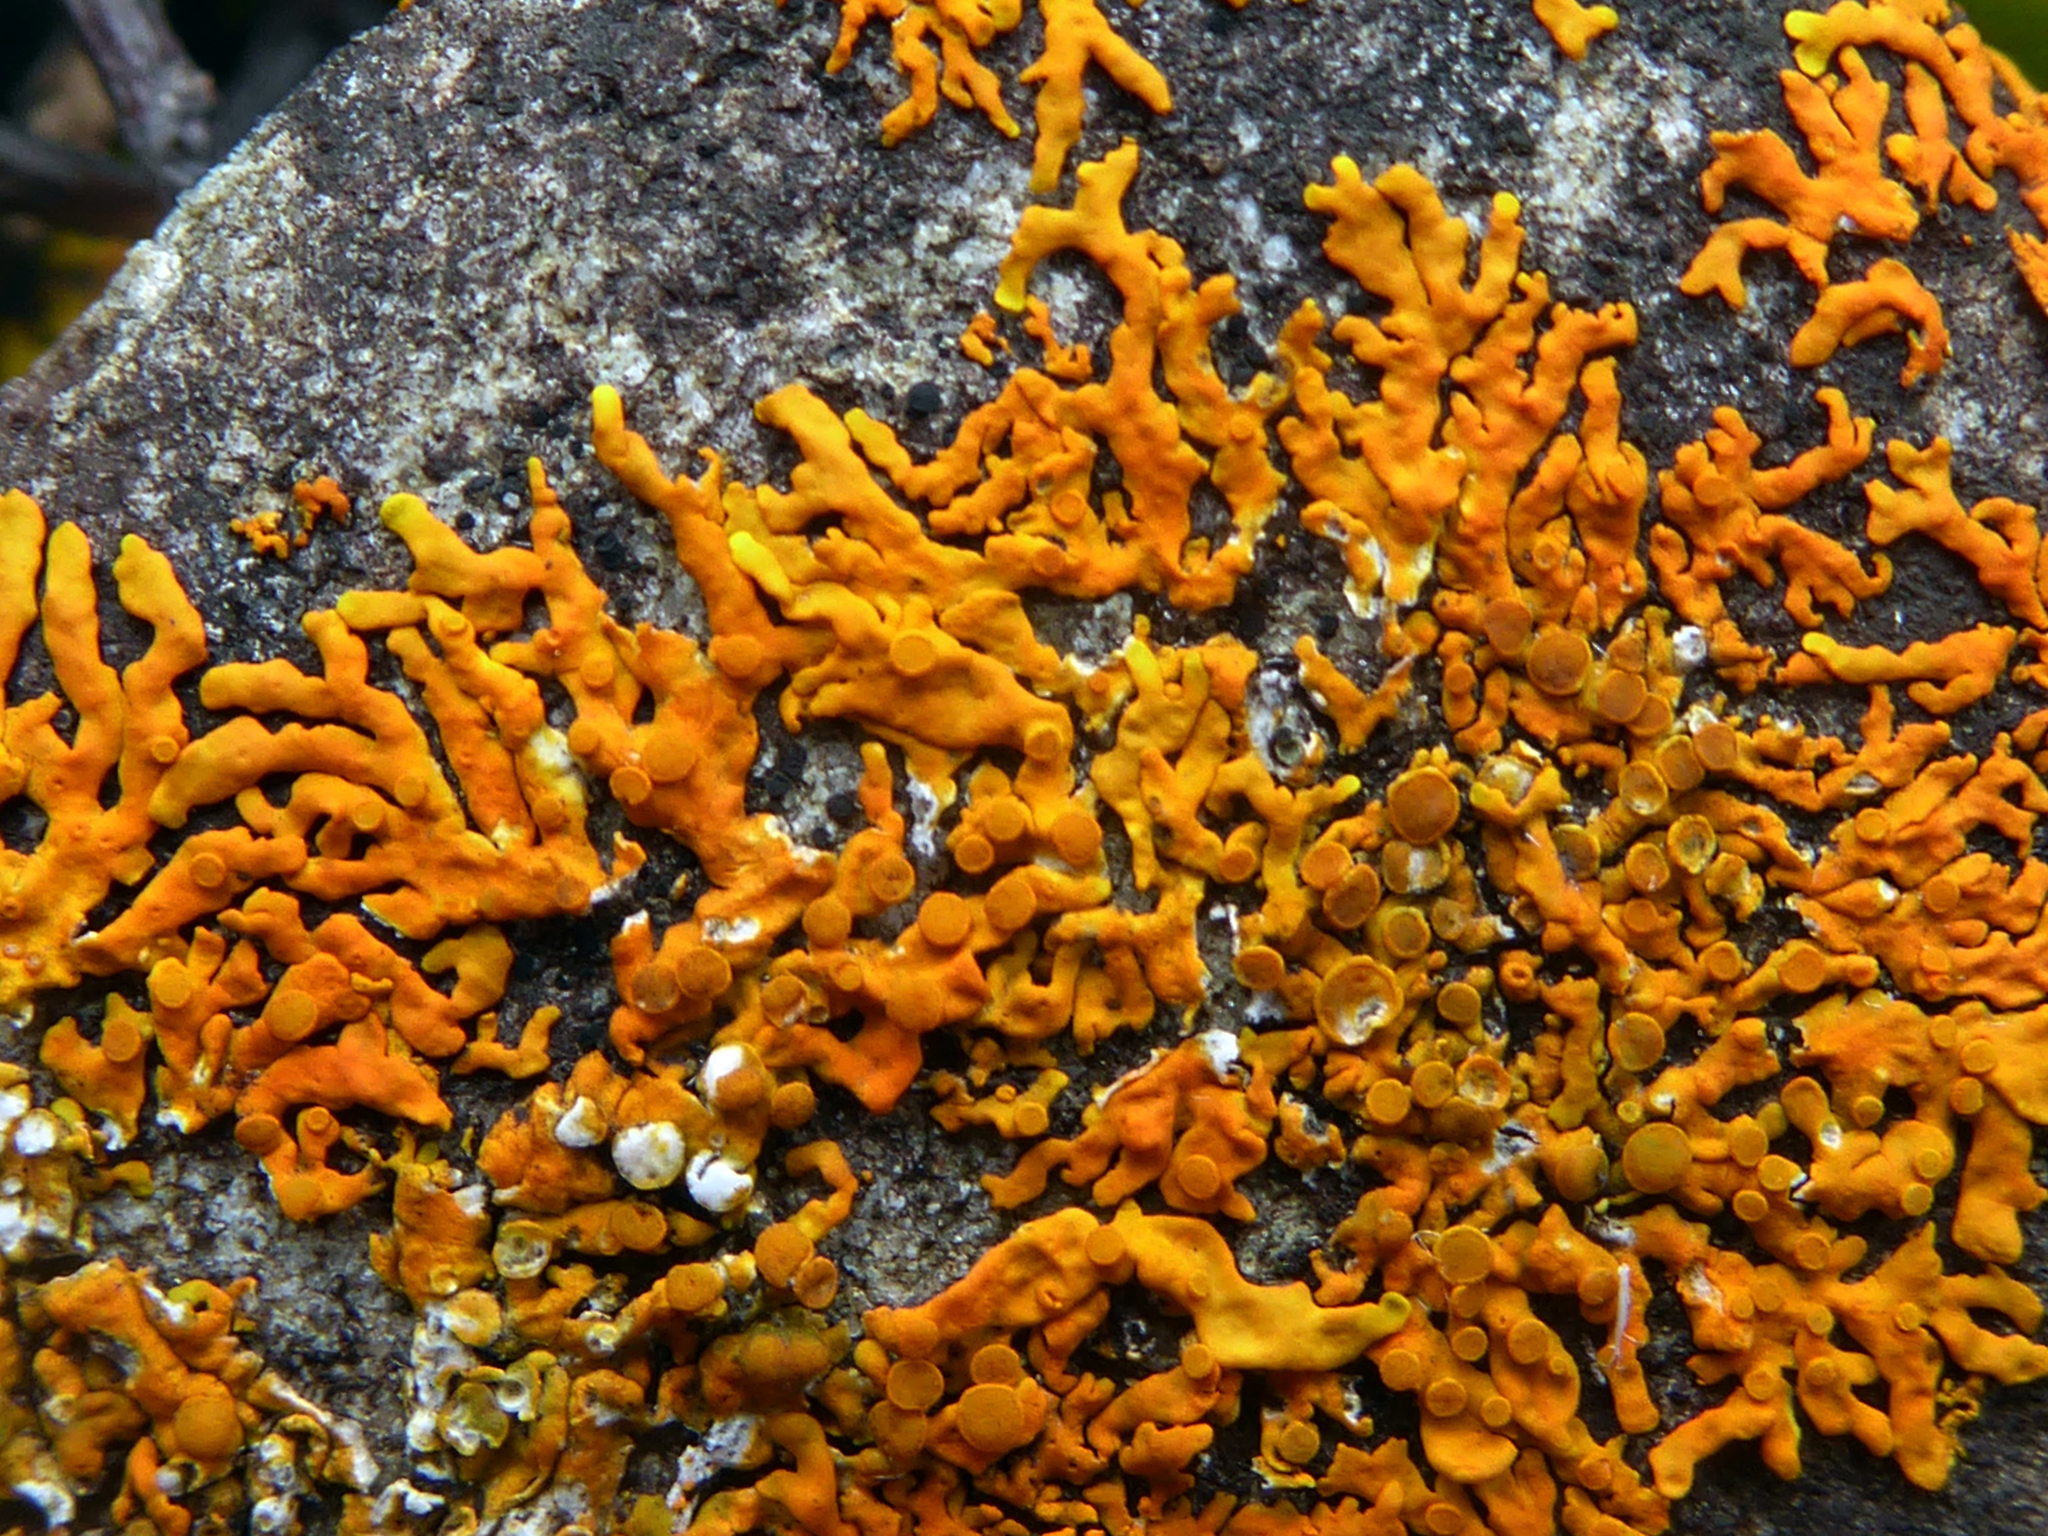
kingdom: Fungi
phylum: Ascomycota
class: Lecanoromycetes
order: Teloschistales
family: Teloschistaceae
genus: Dufourea
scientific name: Dufourea ligulata
